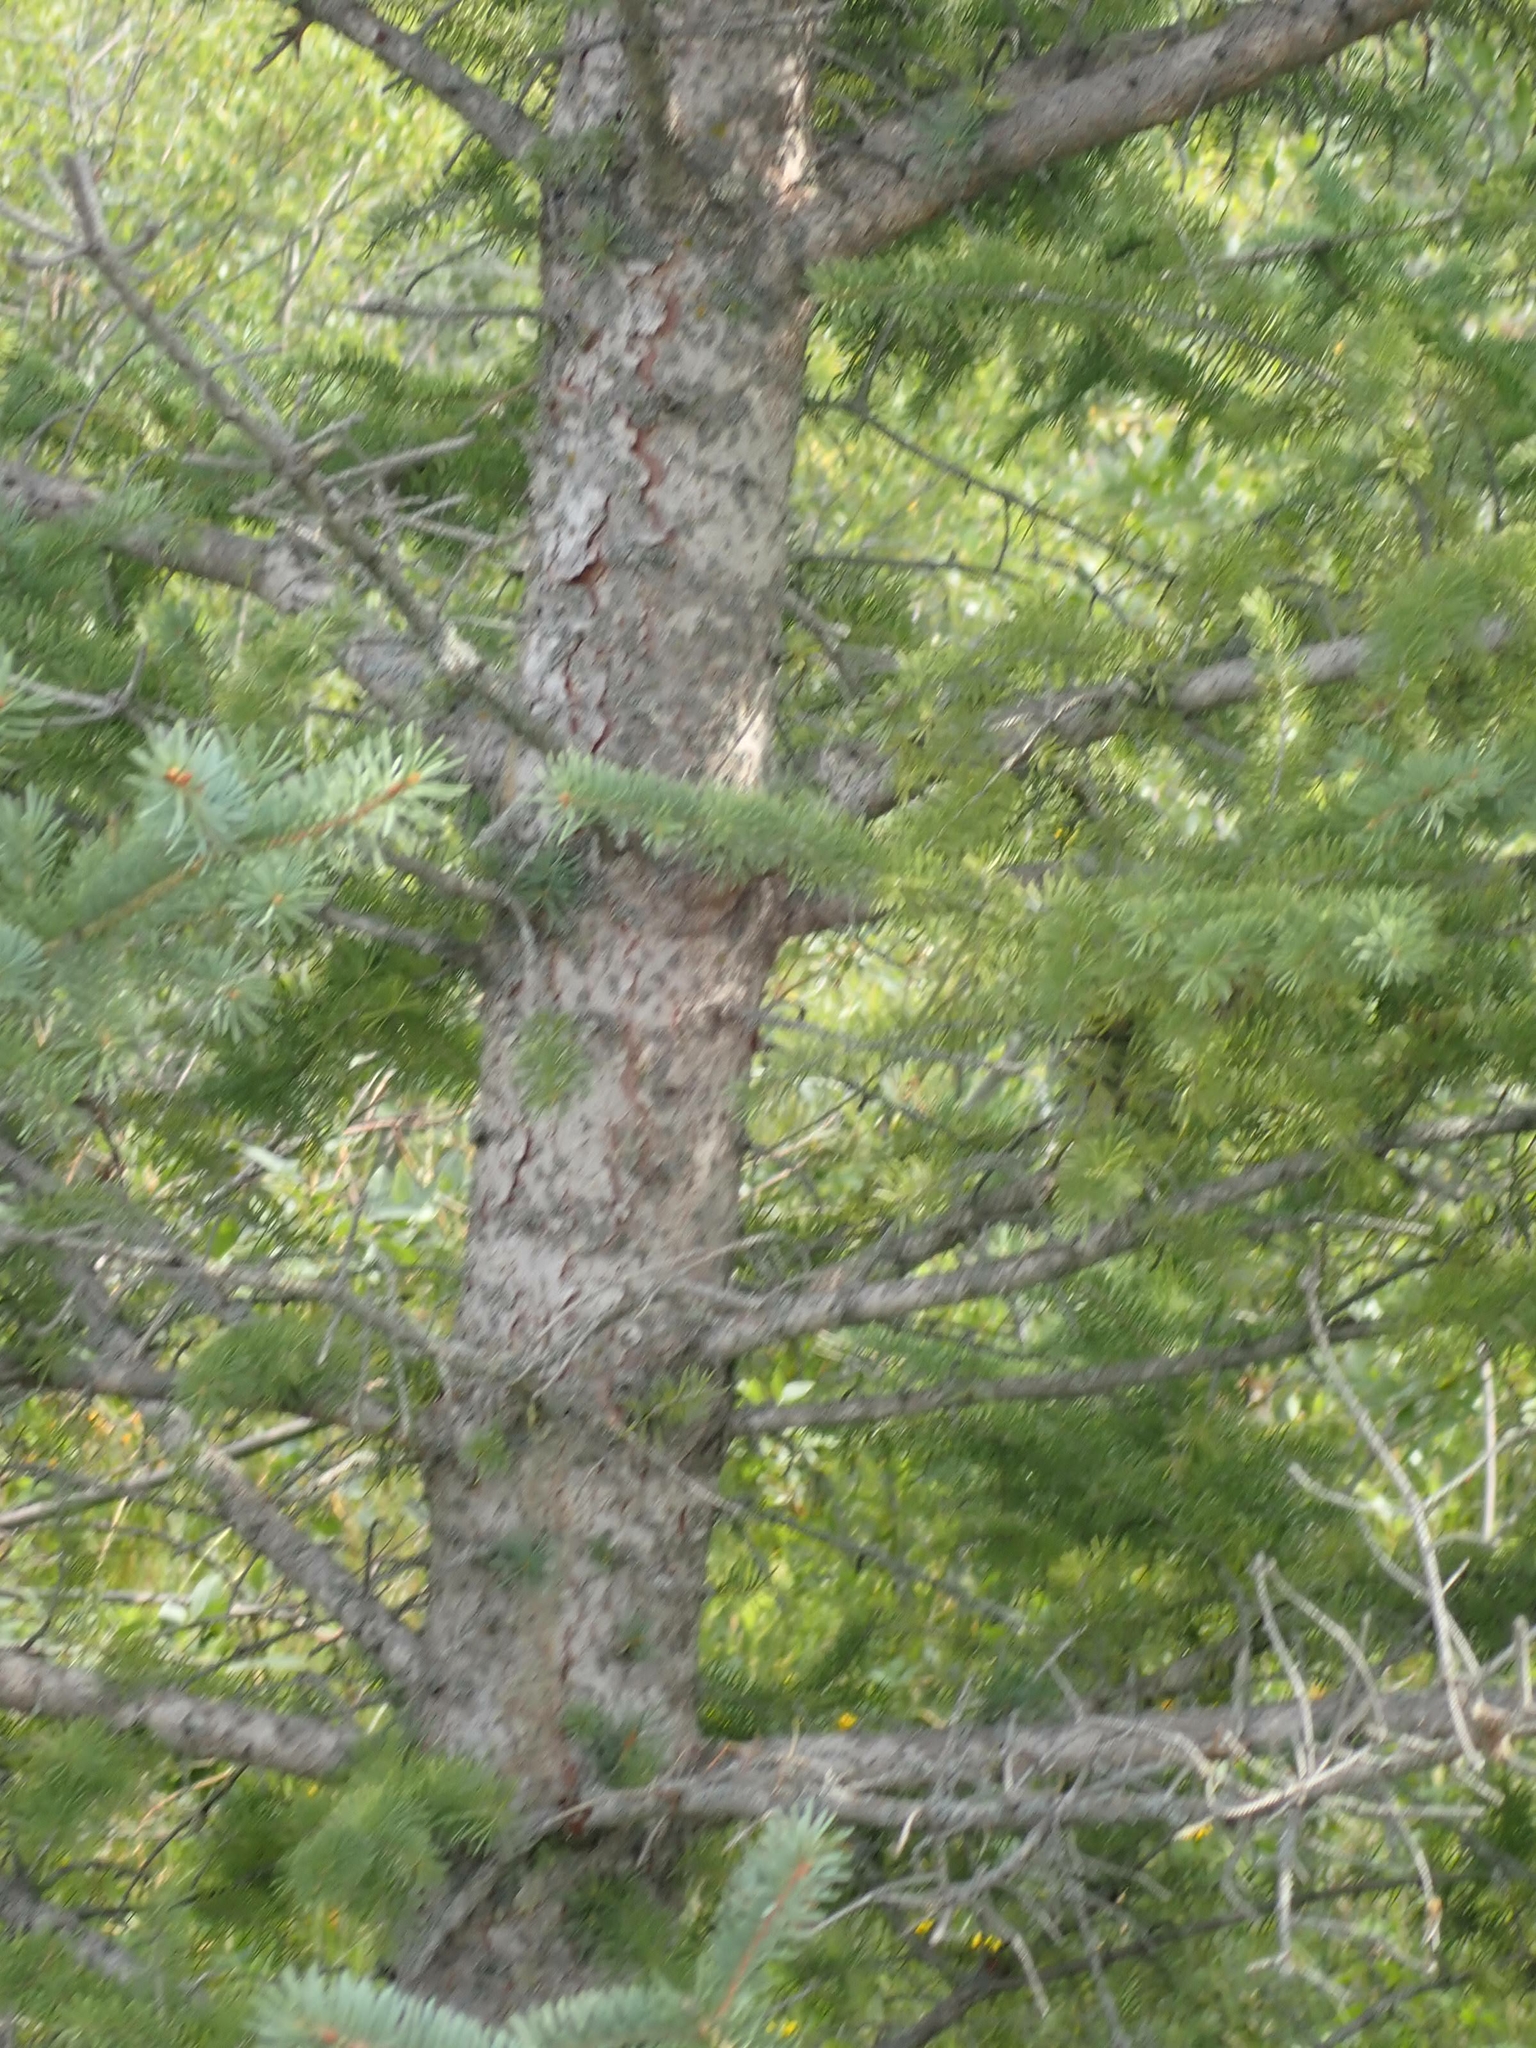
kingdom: Plantae
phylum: Tracheophyta
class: Pinopsida
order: Pinales
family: Pinaceae
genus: Picea
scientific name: Picea glauca
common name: White spruce
